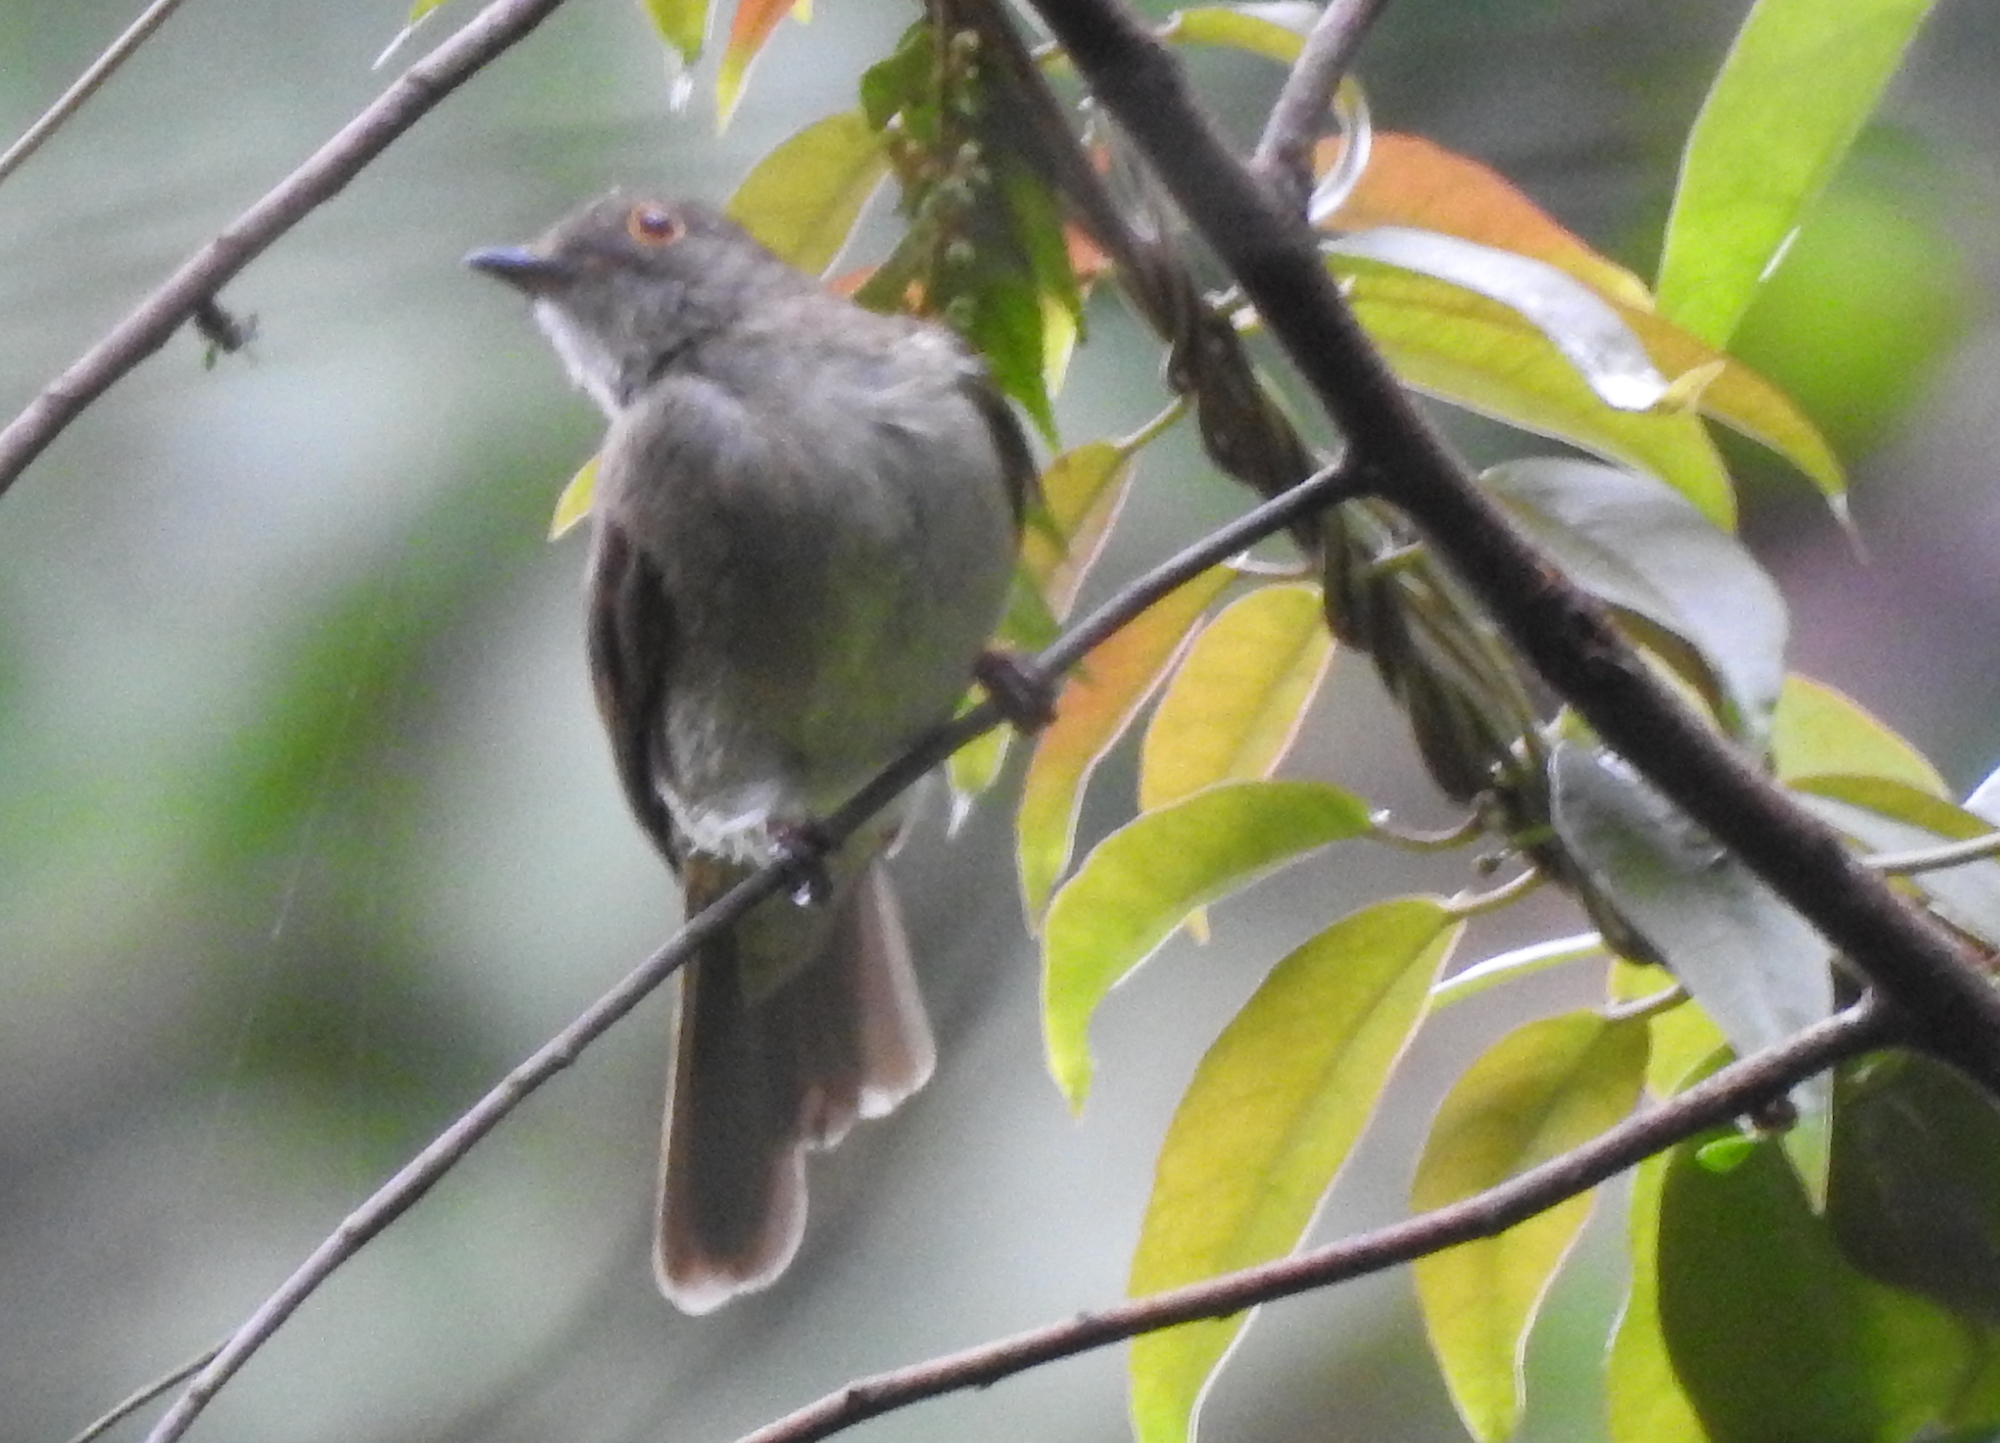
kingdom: Animalia
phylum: Chordata
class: Aves
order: Passeriformes
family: Pycnonotidae
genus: Rubigula
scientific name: Rubigula erythropthalmos
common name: Spectacled bulbul
